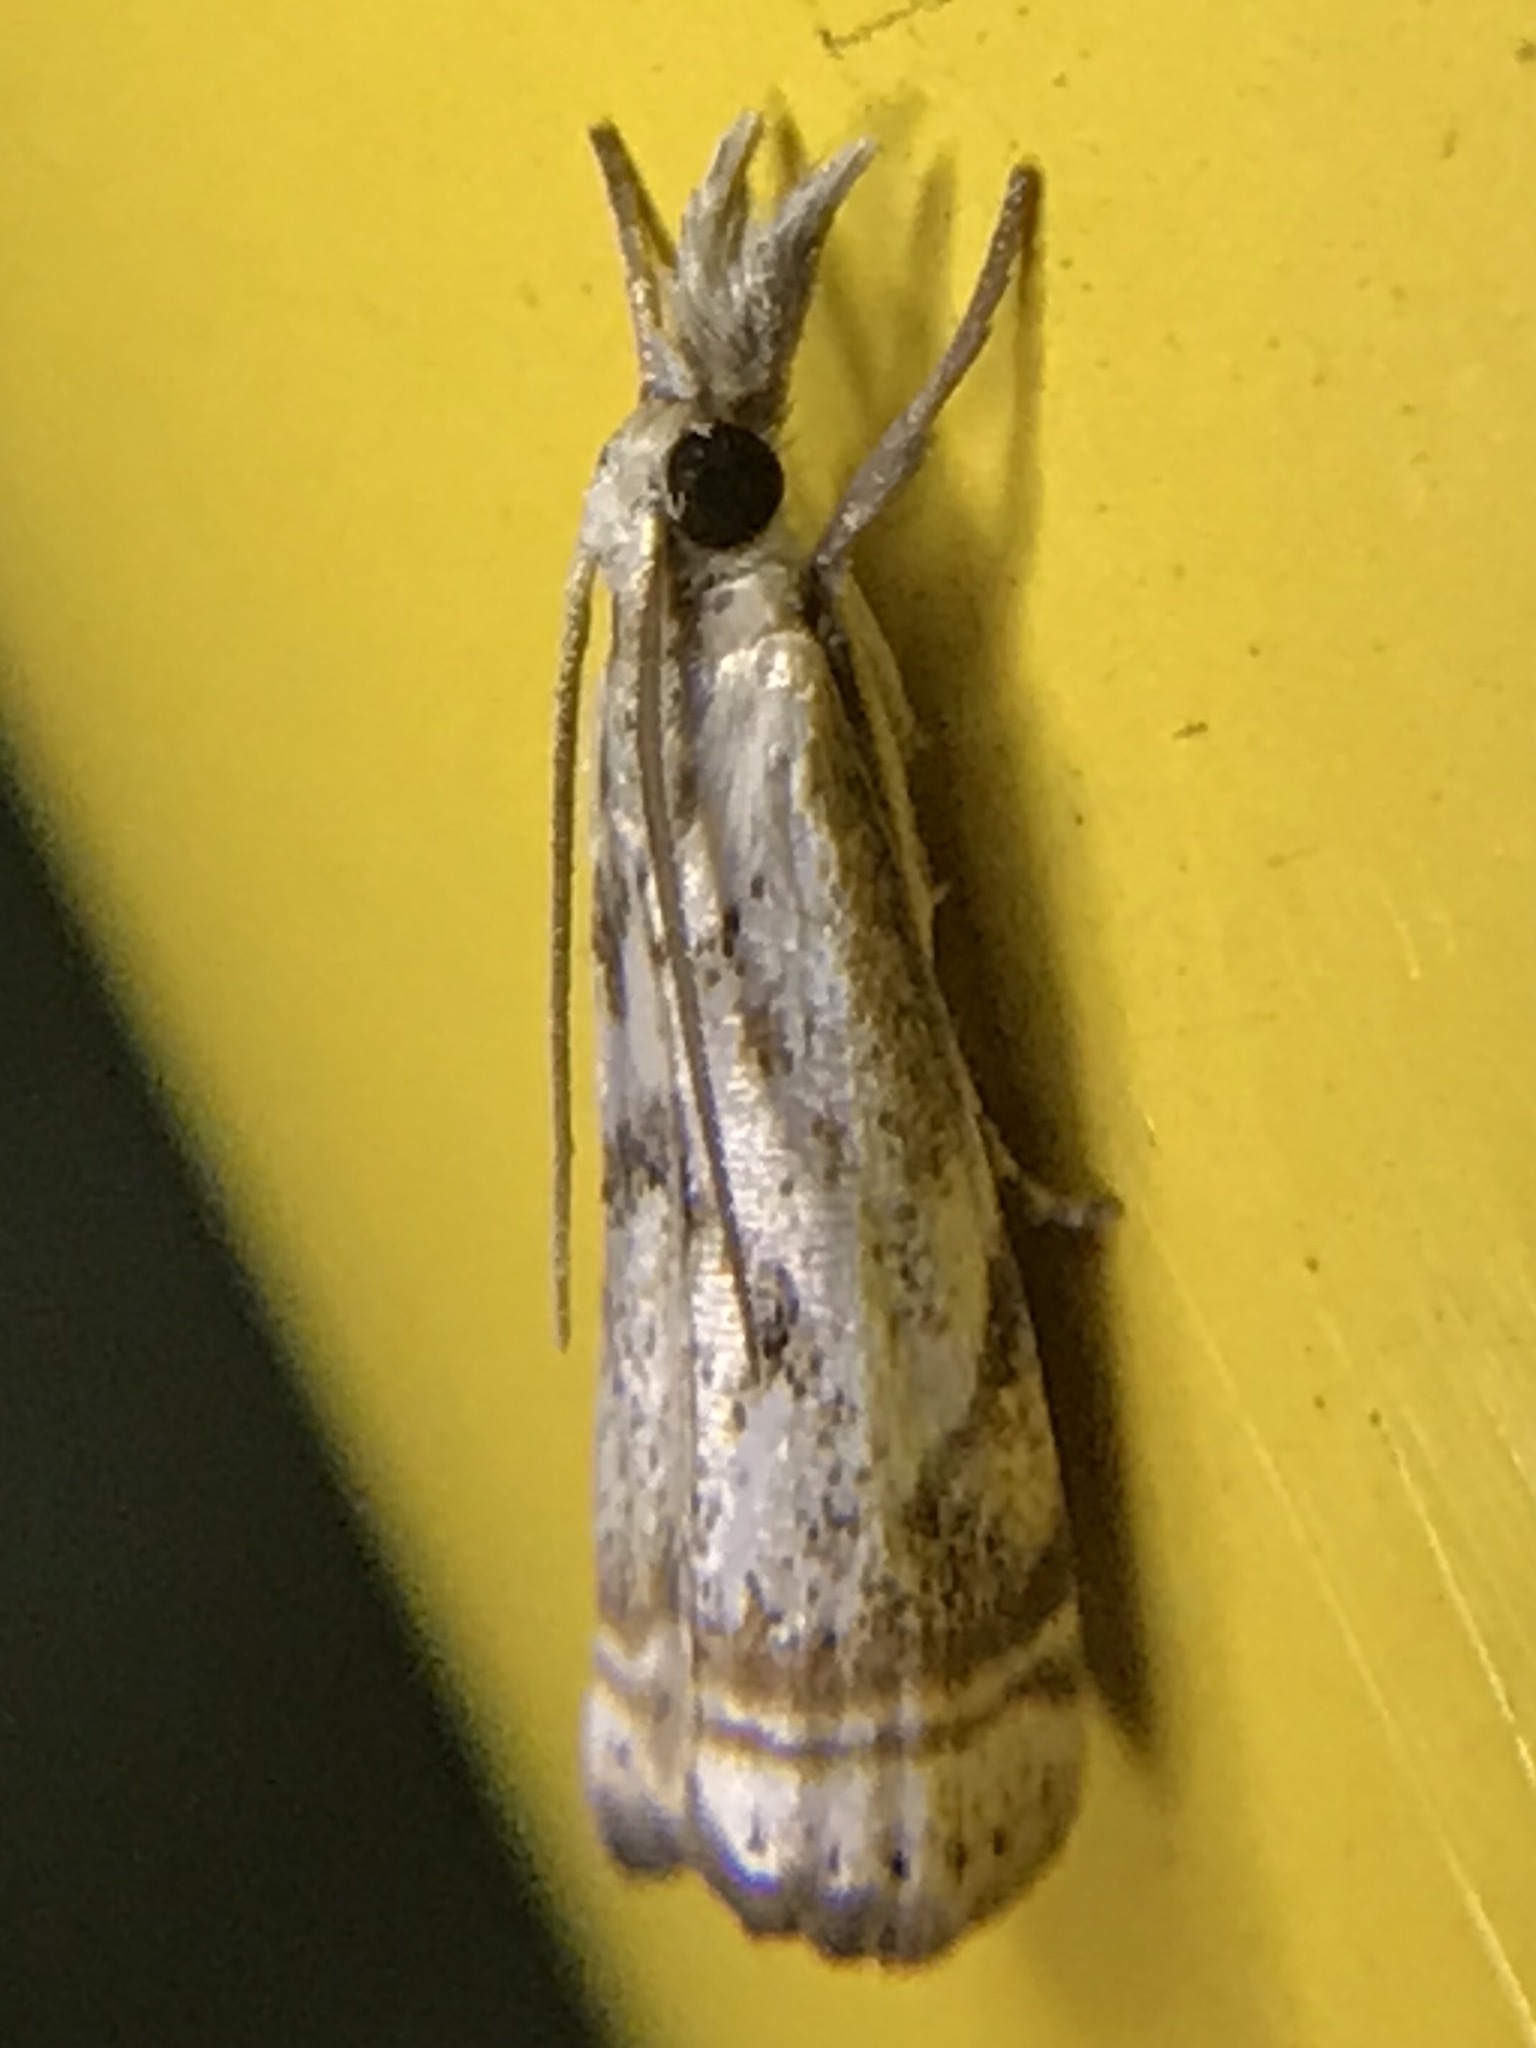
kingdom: Animalia
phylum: Arthropoda
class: Insecta
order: Lepidoptera
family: Crambidae
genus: Microcrambus
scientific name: Microcrambus elegans
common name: Elegant grass-veneer
